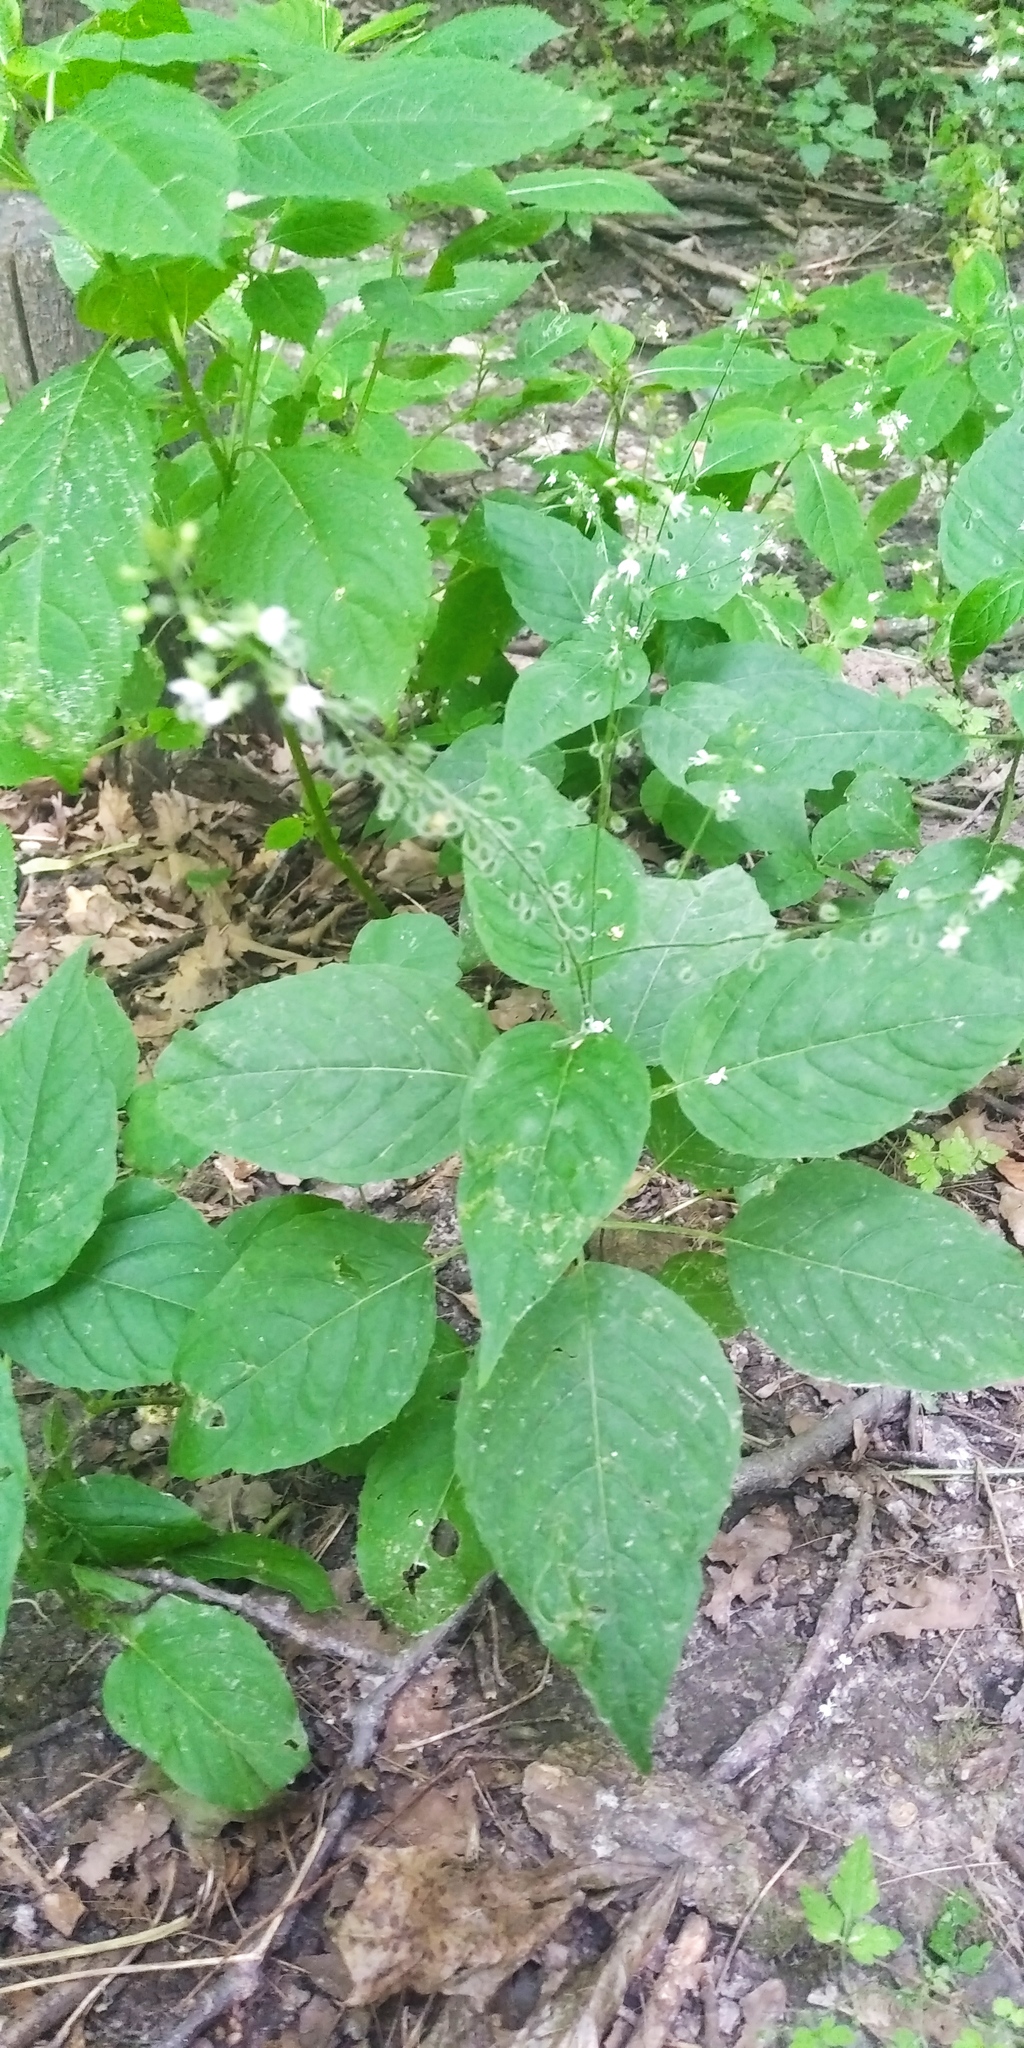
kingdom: Plantae
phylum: Tracheophyta
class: Magnoliopsida
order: Myrtales
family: Onagraceae
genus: Circaea
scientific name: Circaea lutetiana
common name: Enchanter's-nightshade
